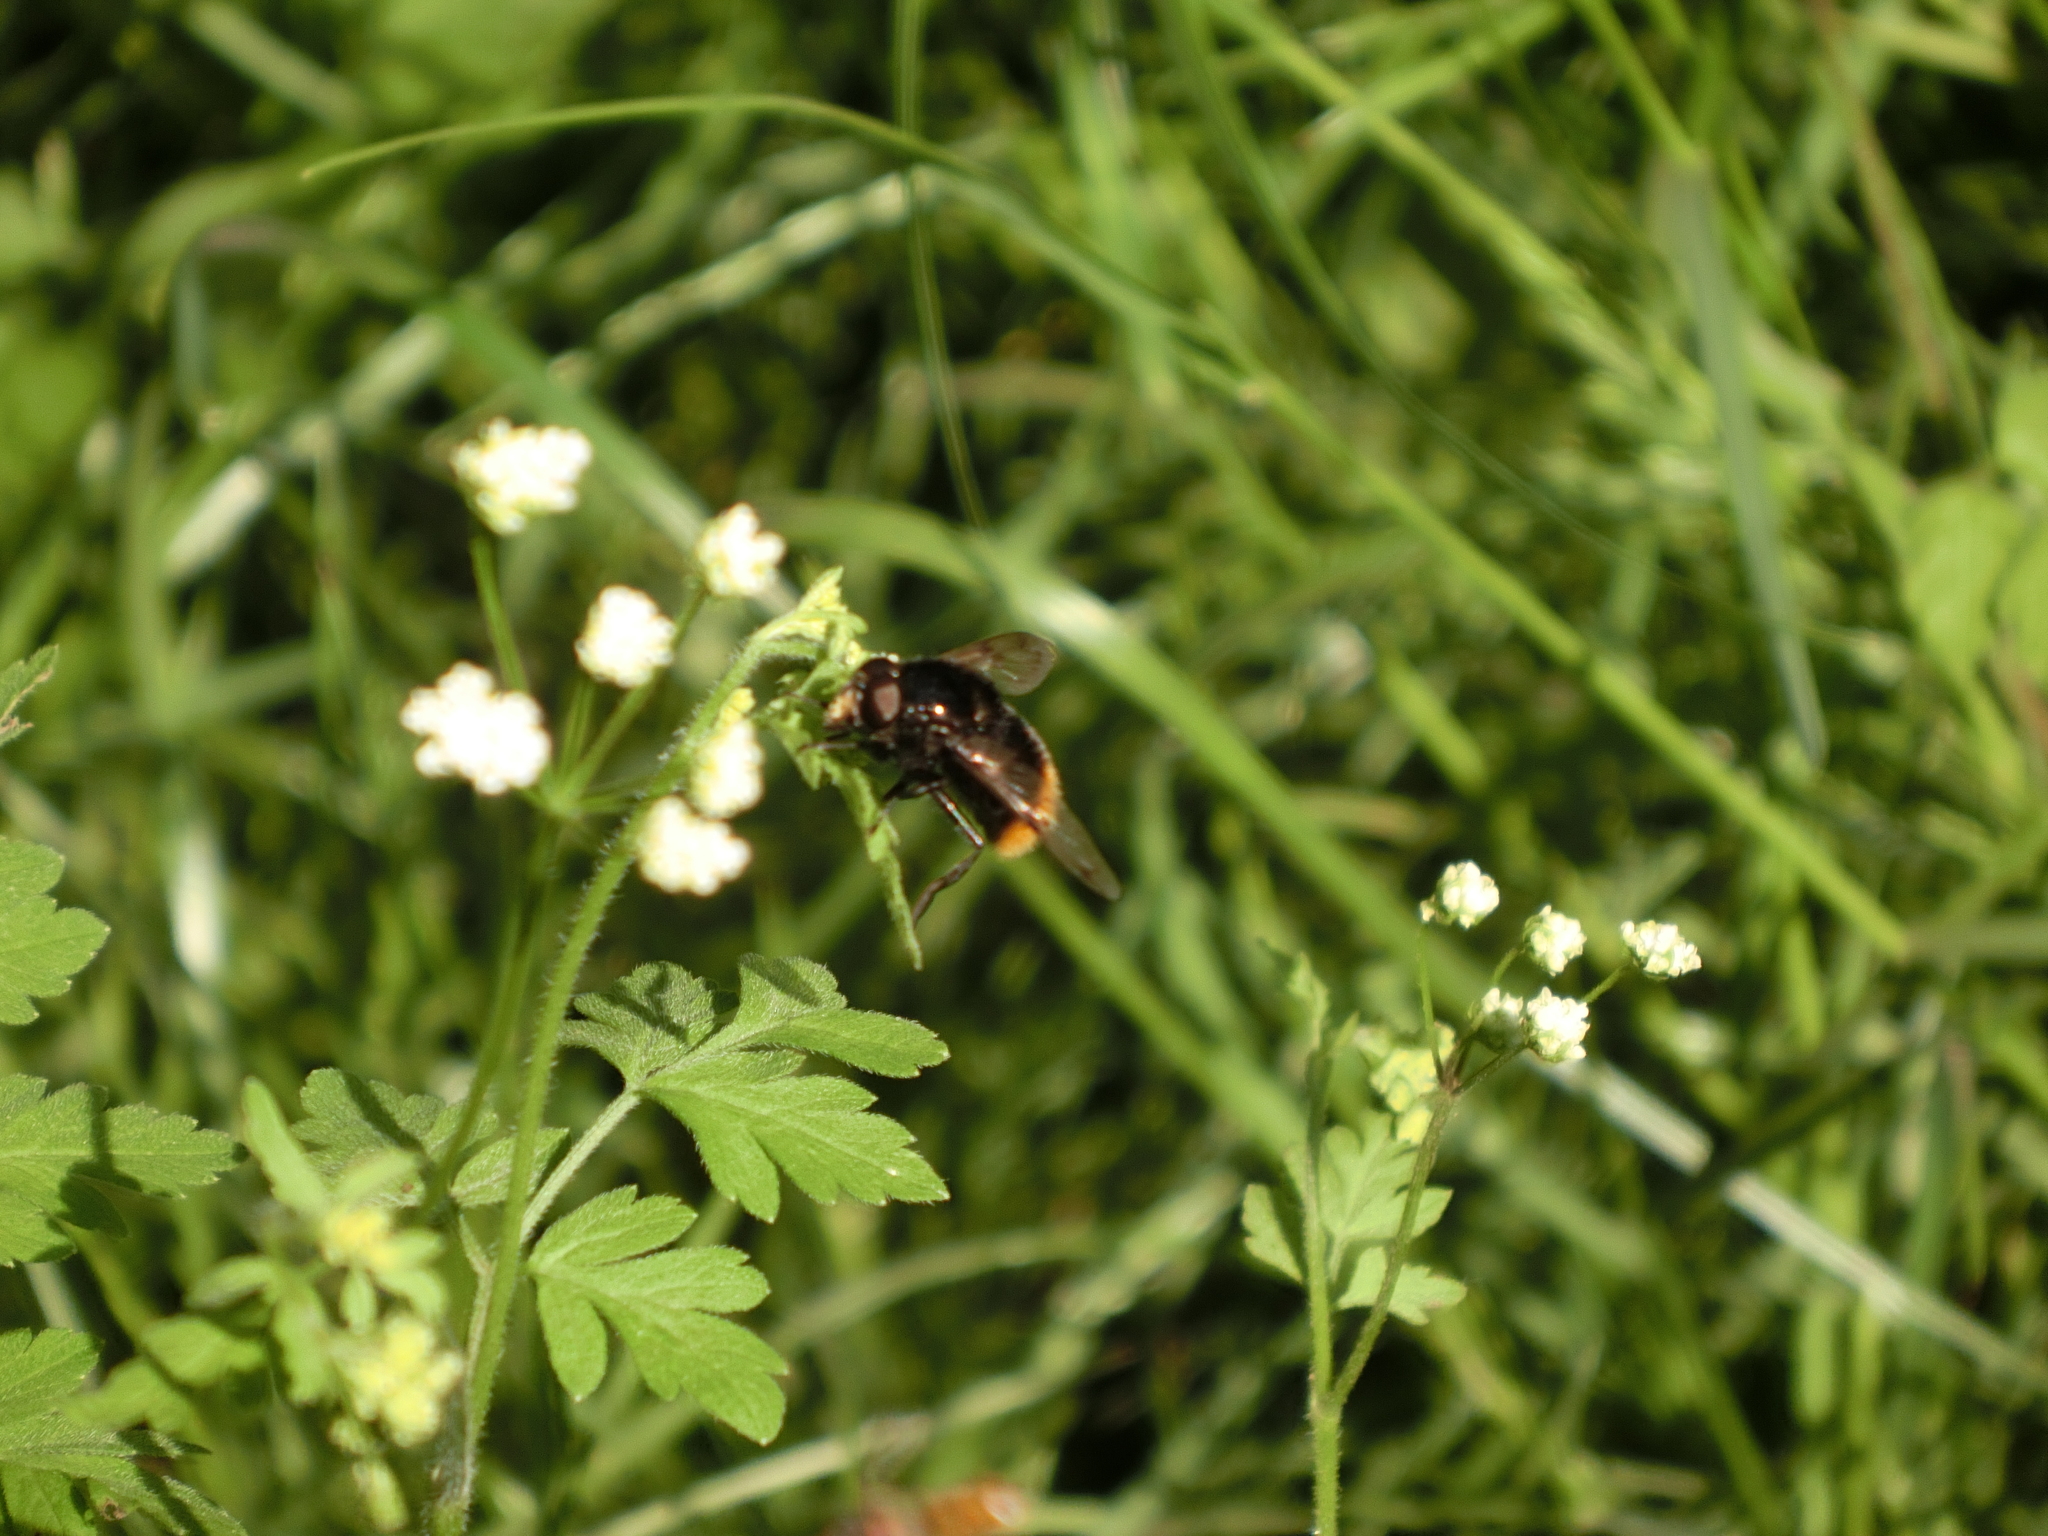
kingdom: Animalia
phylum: Arthropoda
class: Insecta
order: Diptera
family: Syrphidae
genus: Volucella
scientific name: Volucella bombylans
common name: Bumble bee hover fly
